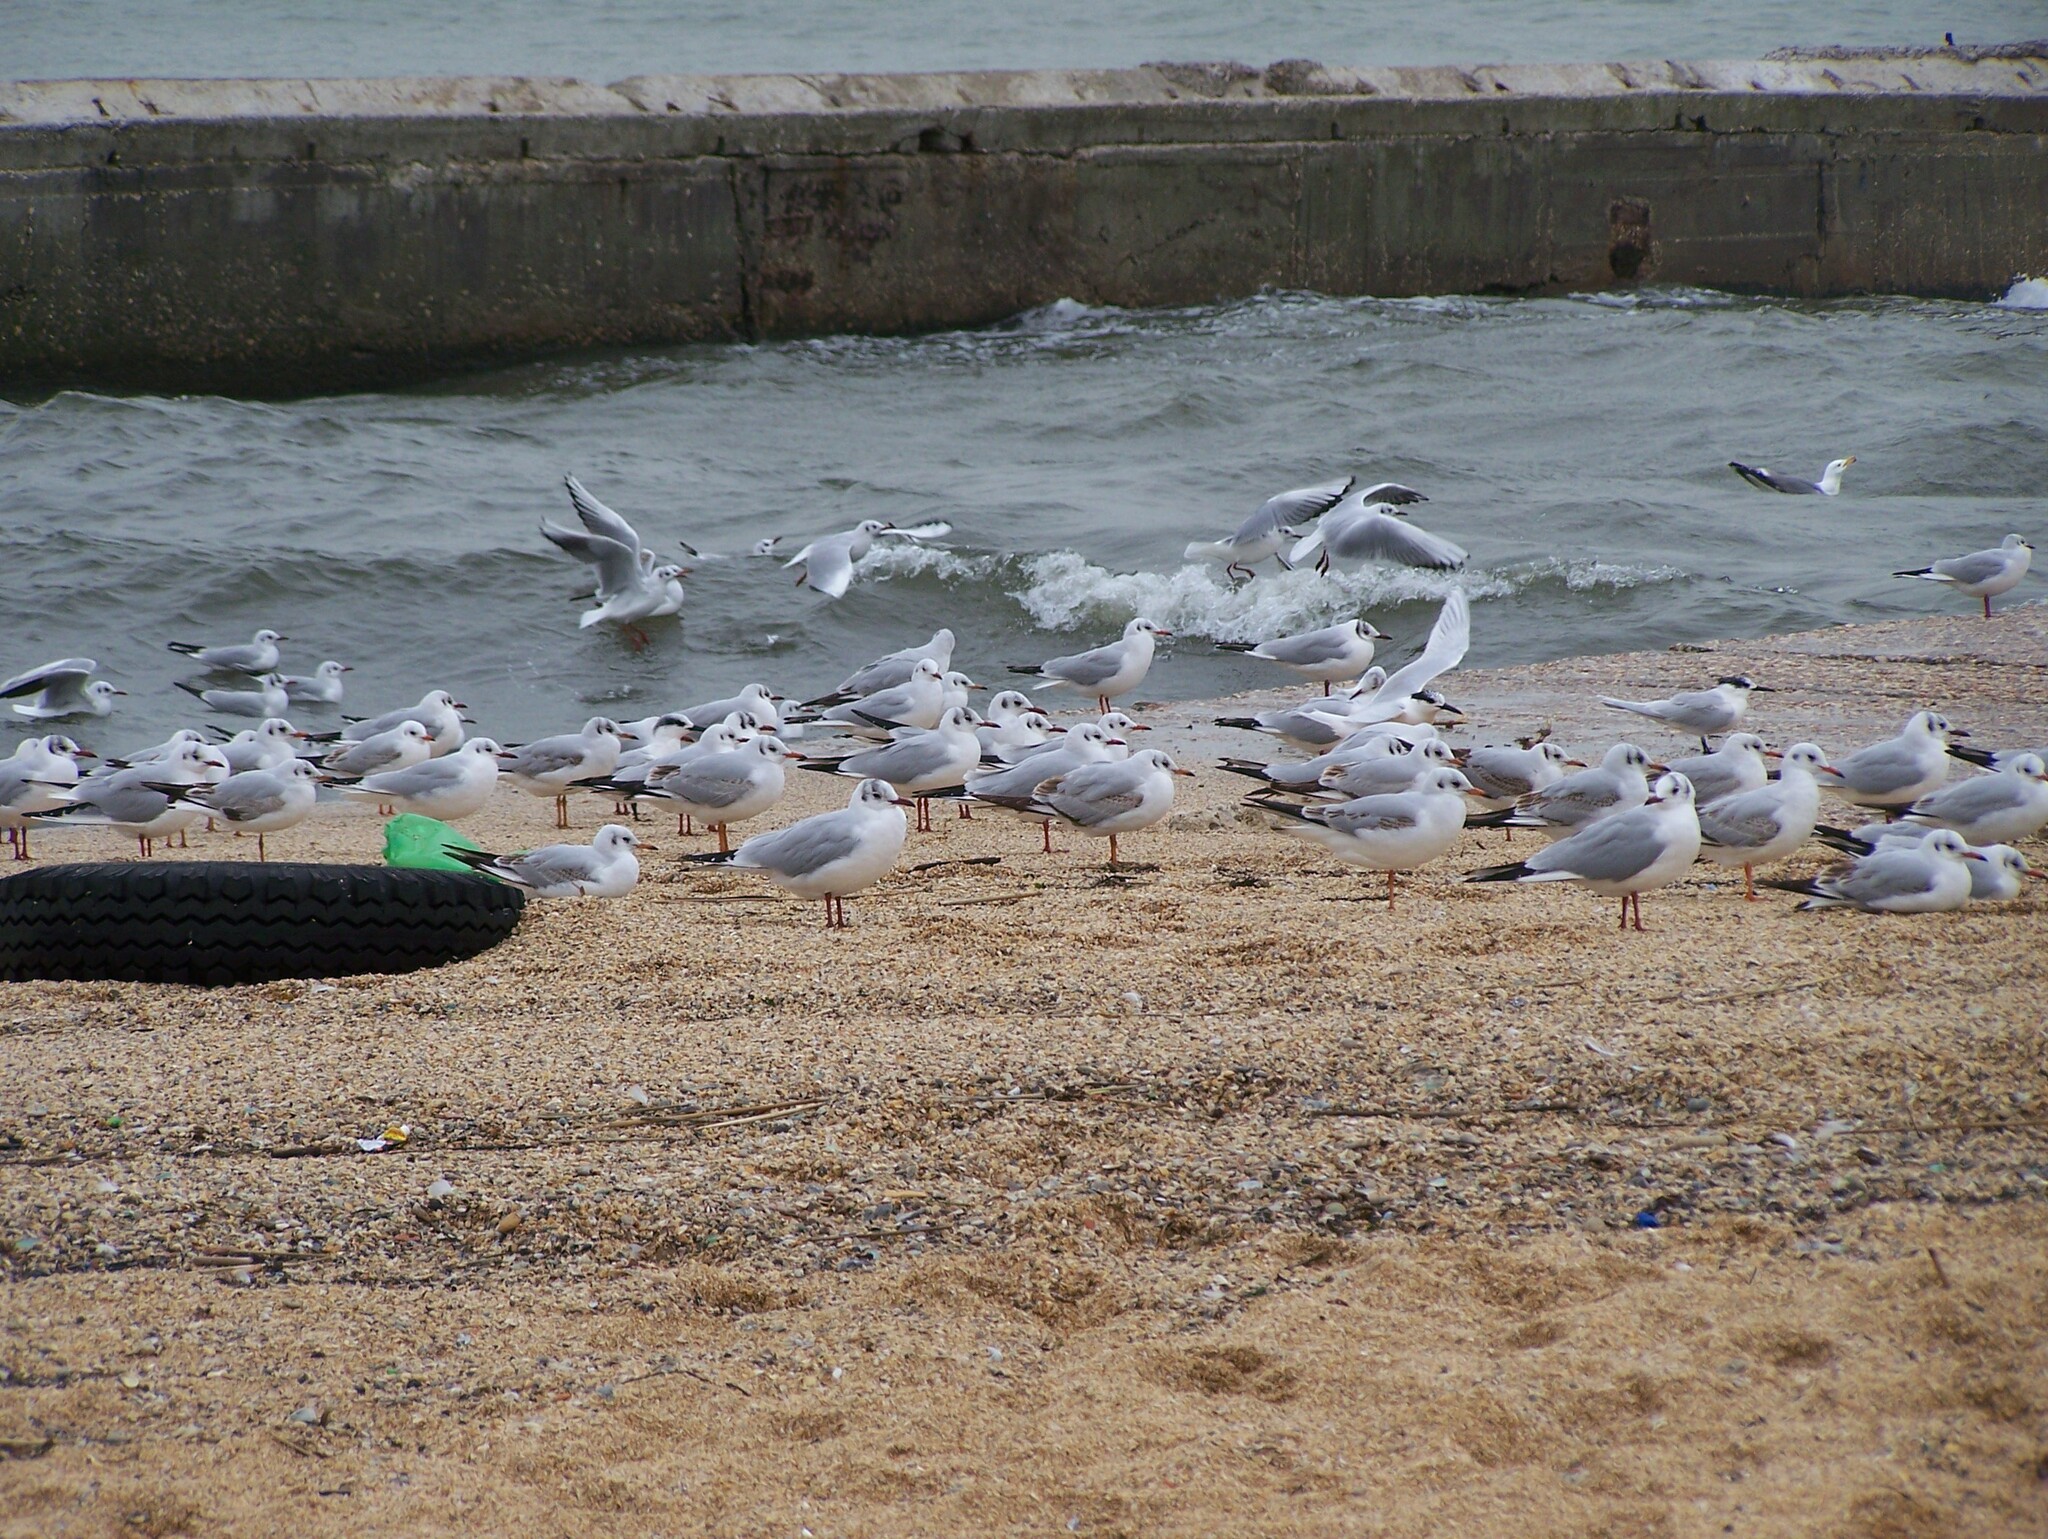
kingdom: Animalia
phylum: Chordata
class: Aves
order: Charadriiformes
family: Laridae
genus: Chroicocephalus
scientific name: Chroicocephalus ridibundus
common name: Black-headed gull
